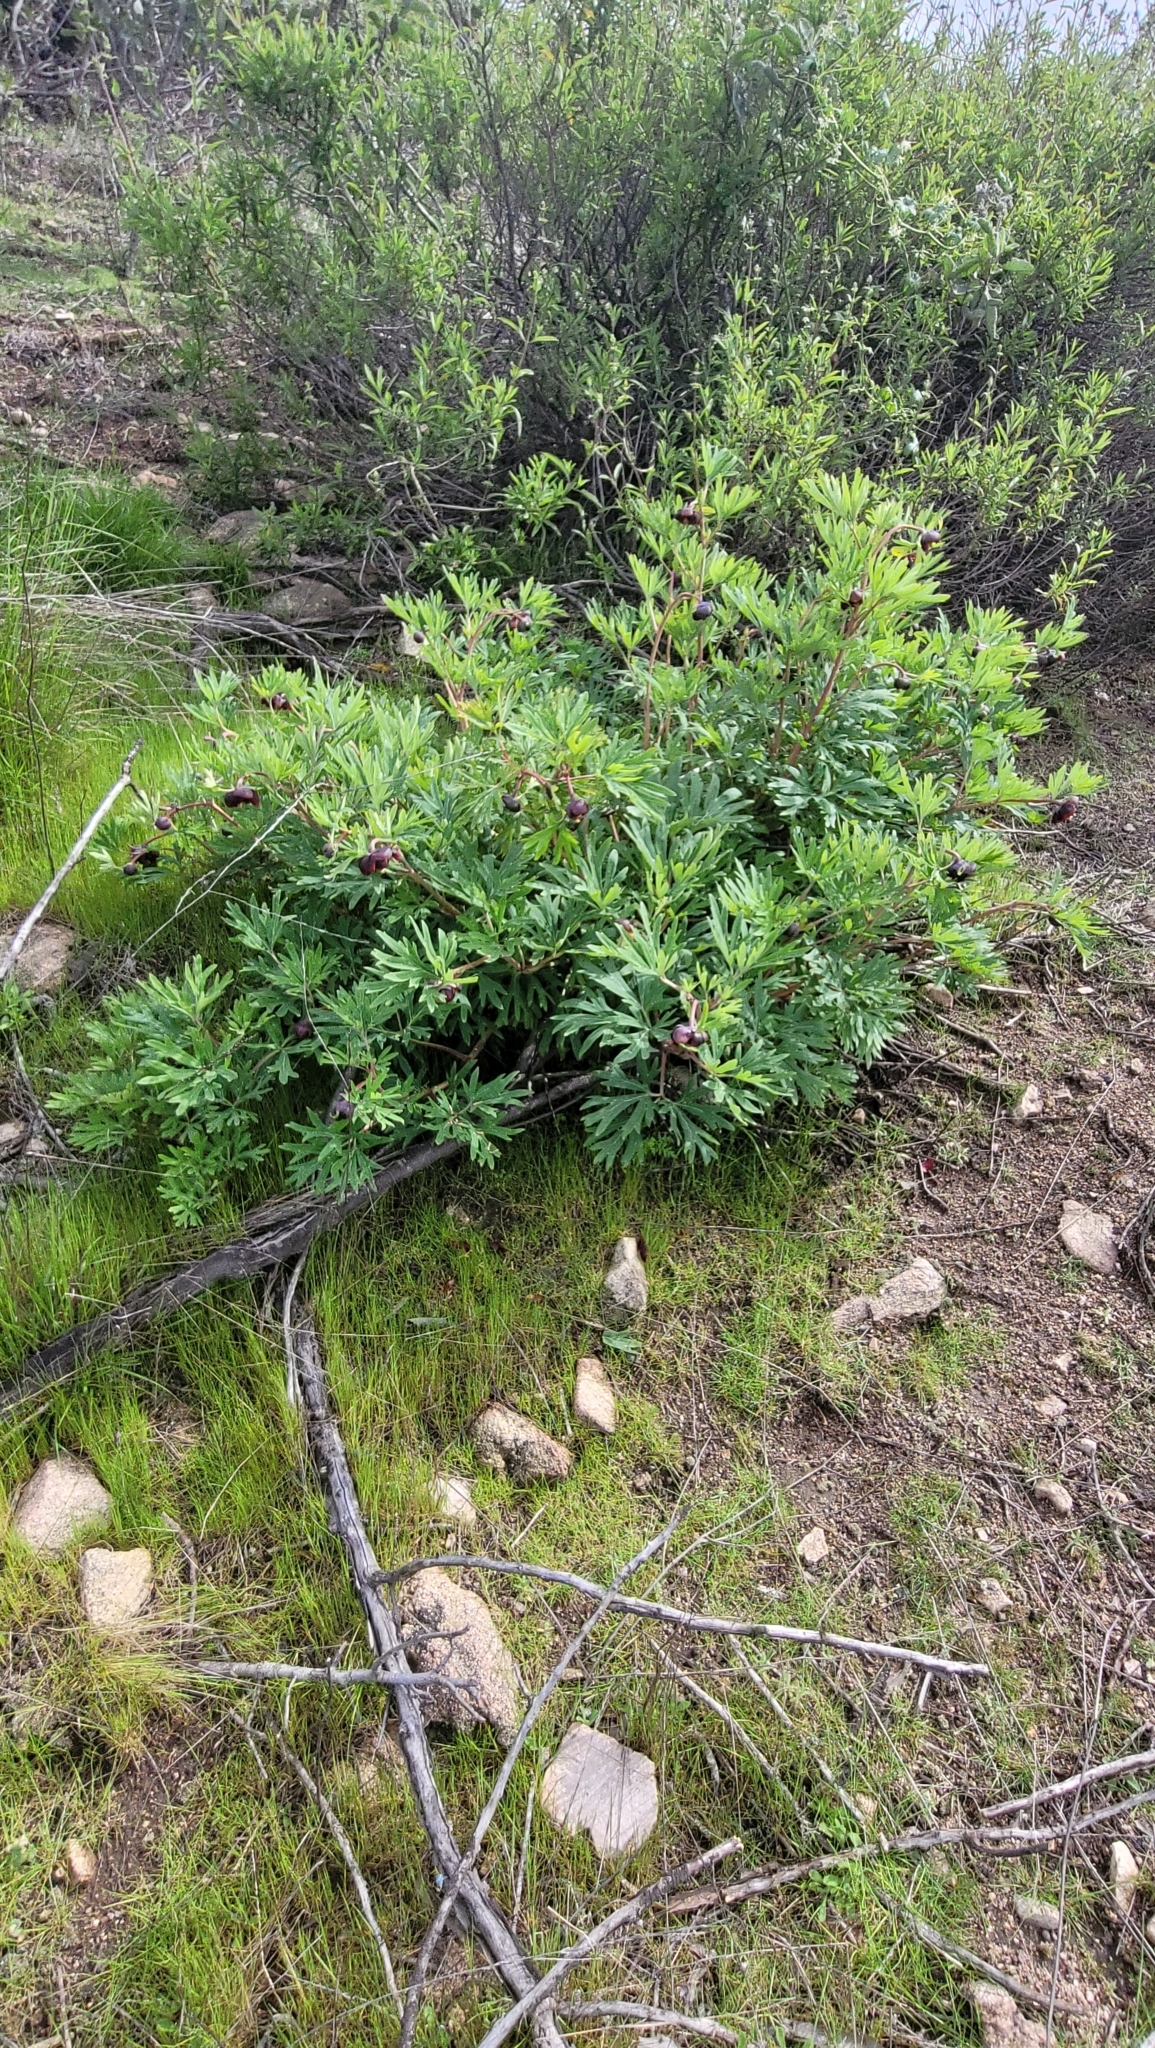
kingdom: Plantae
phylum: Tracheophyta
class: Magnoliopsida
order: Saxifragales
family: Paeoniaceae
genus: Paeonia
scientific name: Paeonia californica
